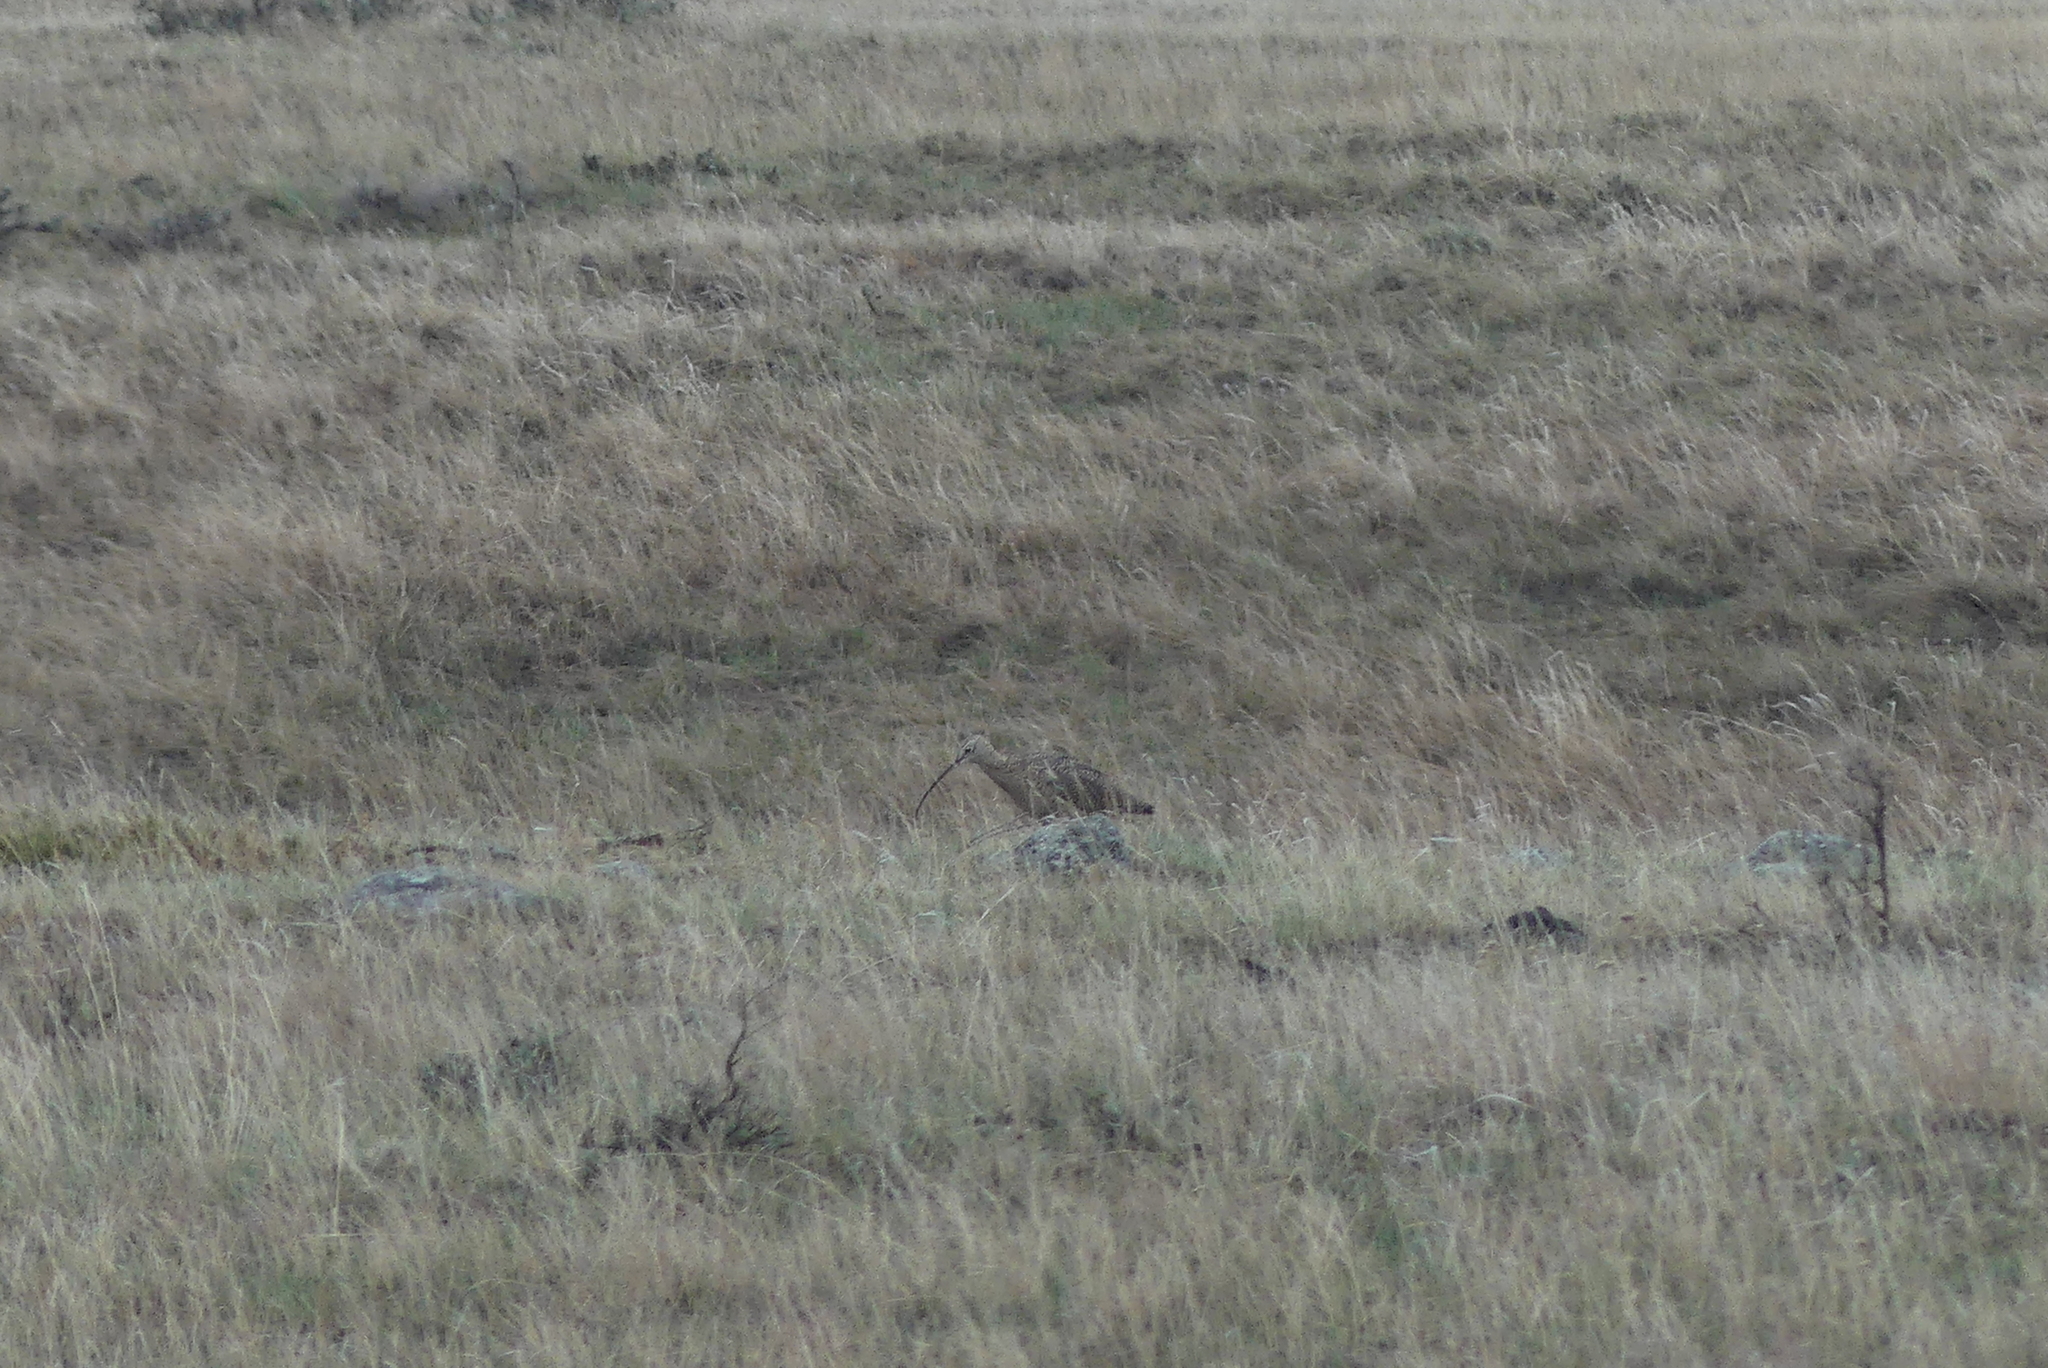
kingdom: Animalia
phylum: Chordata
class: Aves
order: Charadriiformes
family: Scolopacidae
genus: Numenius
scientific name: Numenius americanus
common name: Long-billed curlew
